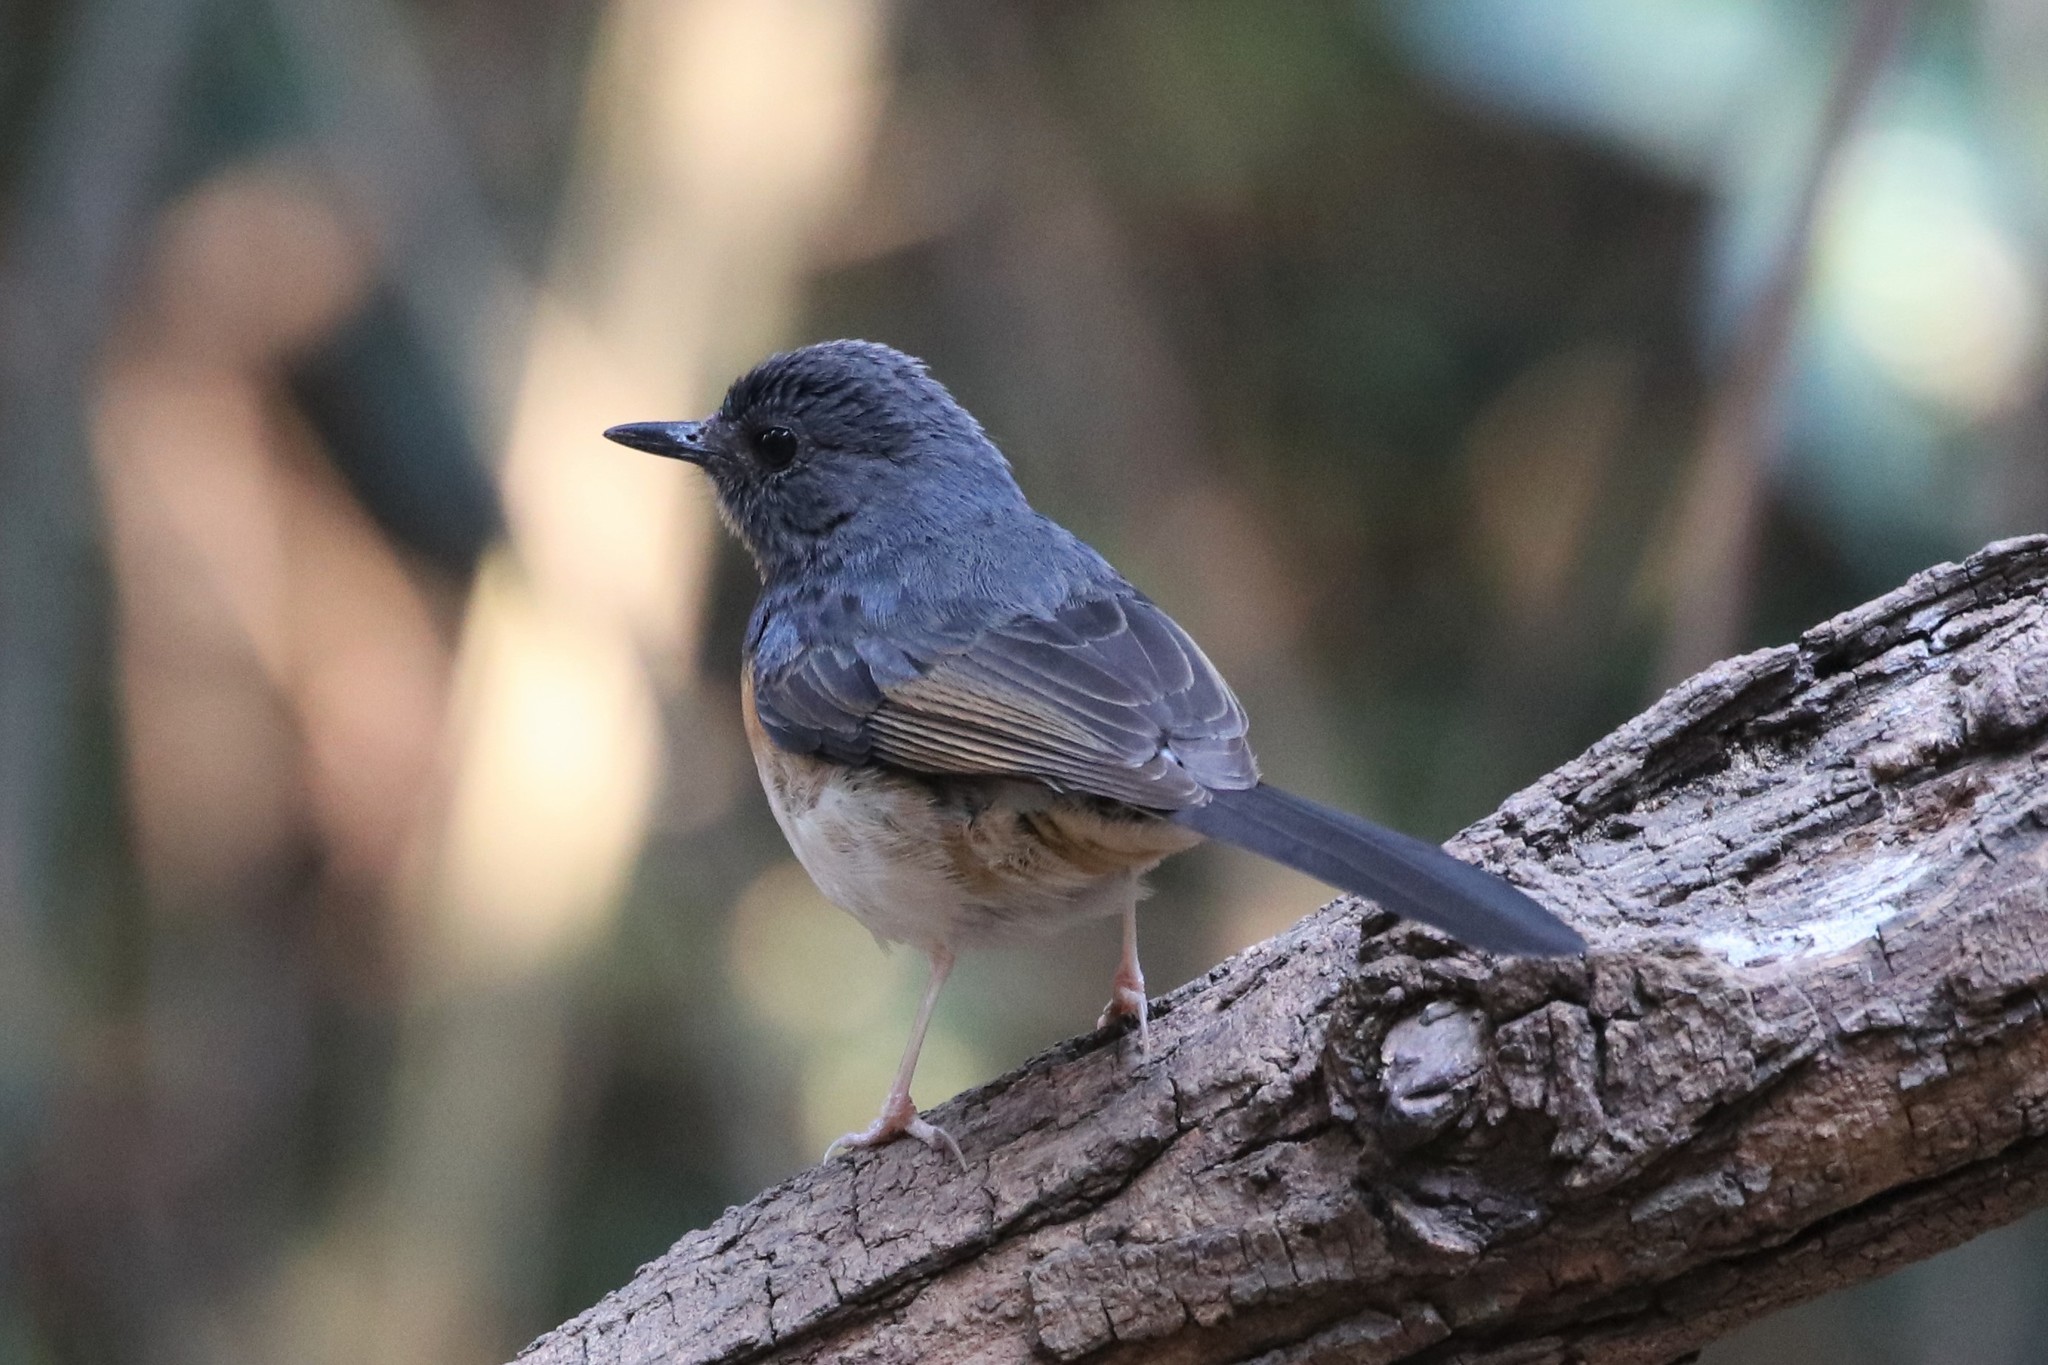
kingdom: Animalia
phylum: Chordata
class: Aves
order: Passeriformes
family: Muscicapidae
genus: Copsychus
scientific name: Copsychus malabaricus
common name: White-rumped shama
